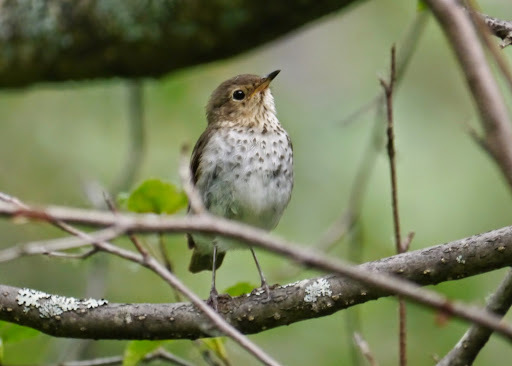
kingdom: Animalia
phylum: Chordata
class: Aves
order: Passeriformes
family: Turdidae
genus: Catharus
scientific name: Catharus ustulatus
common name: Swainson's thrush
